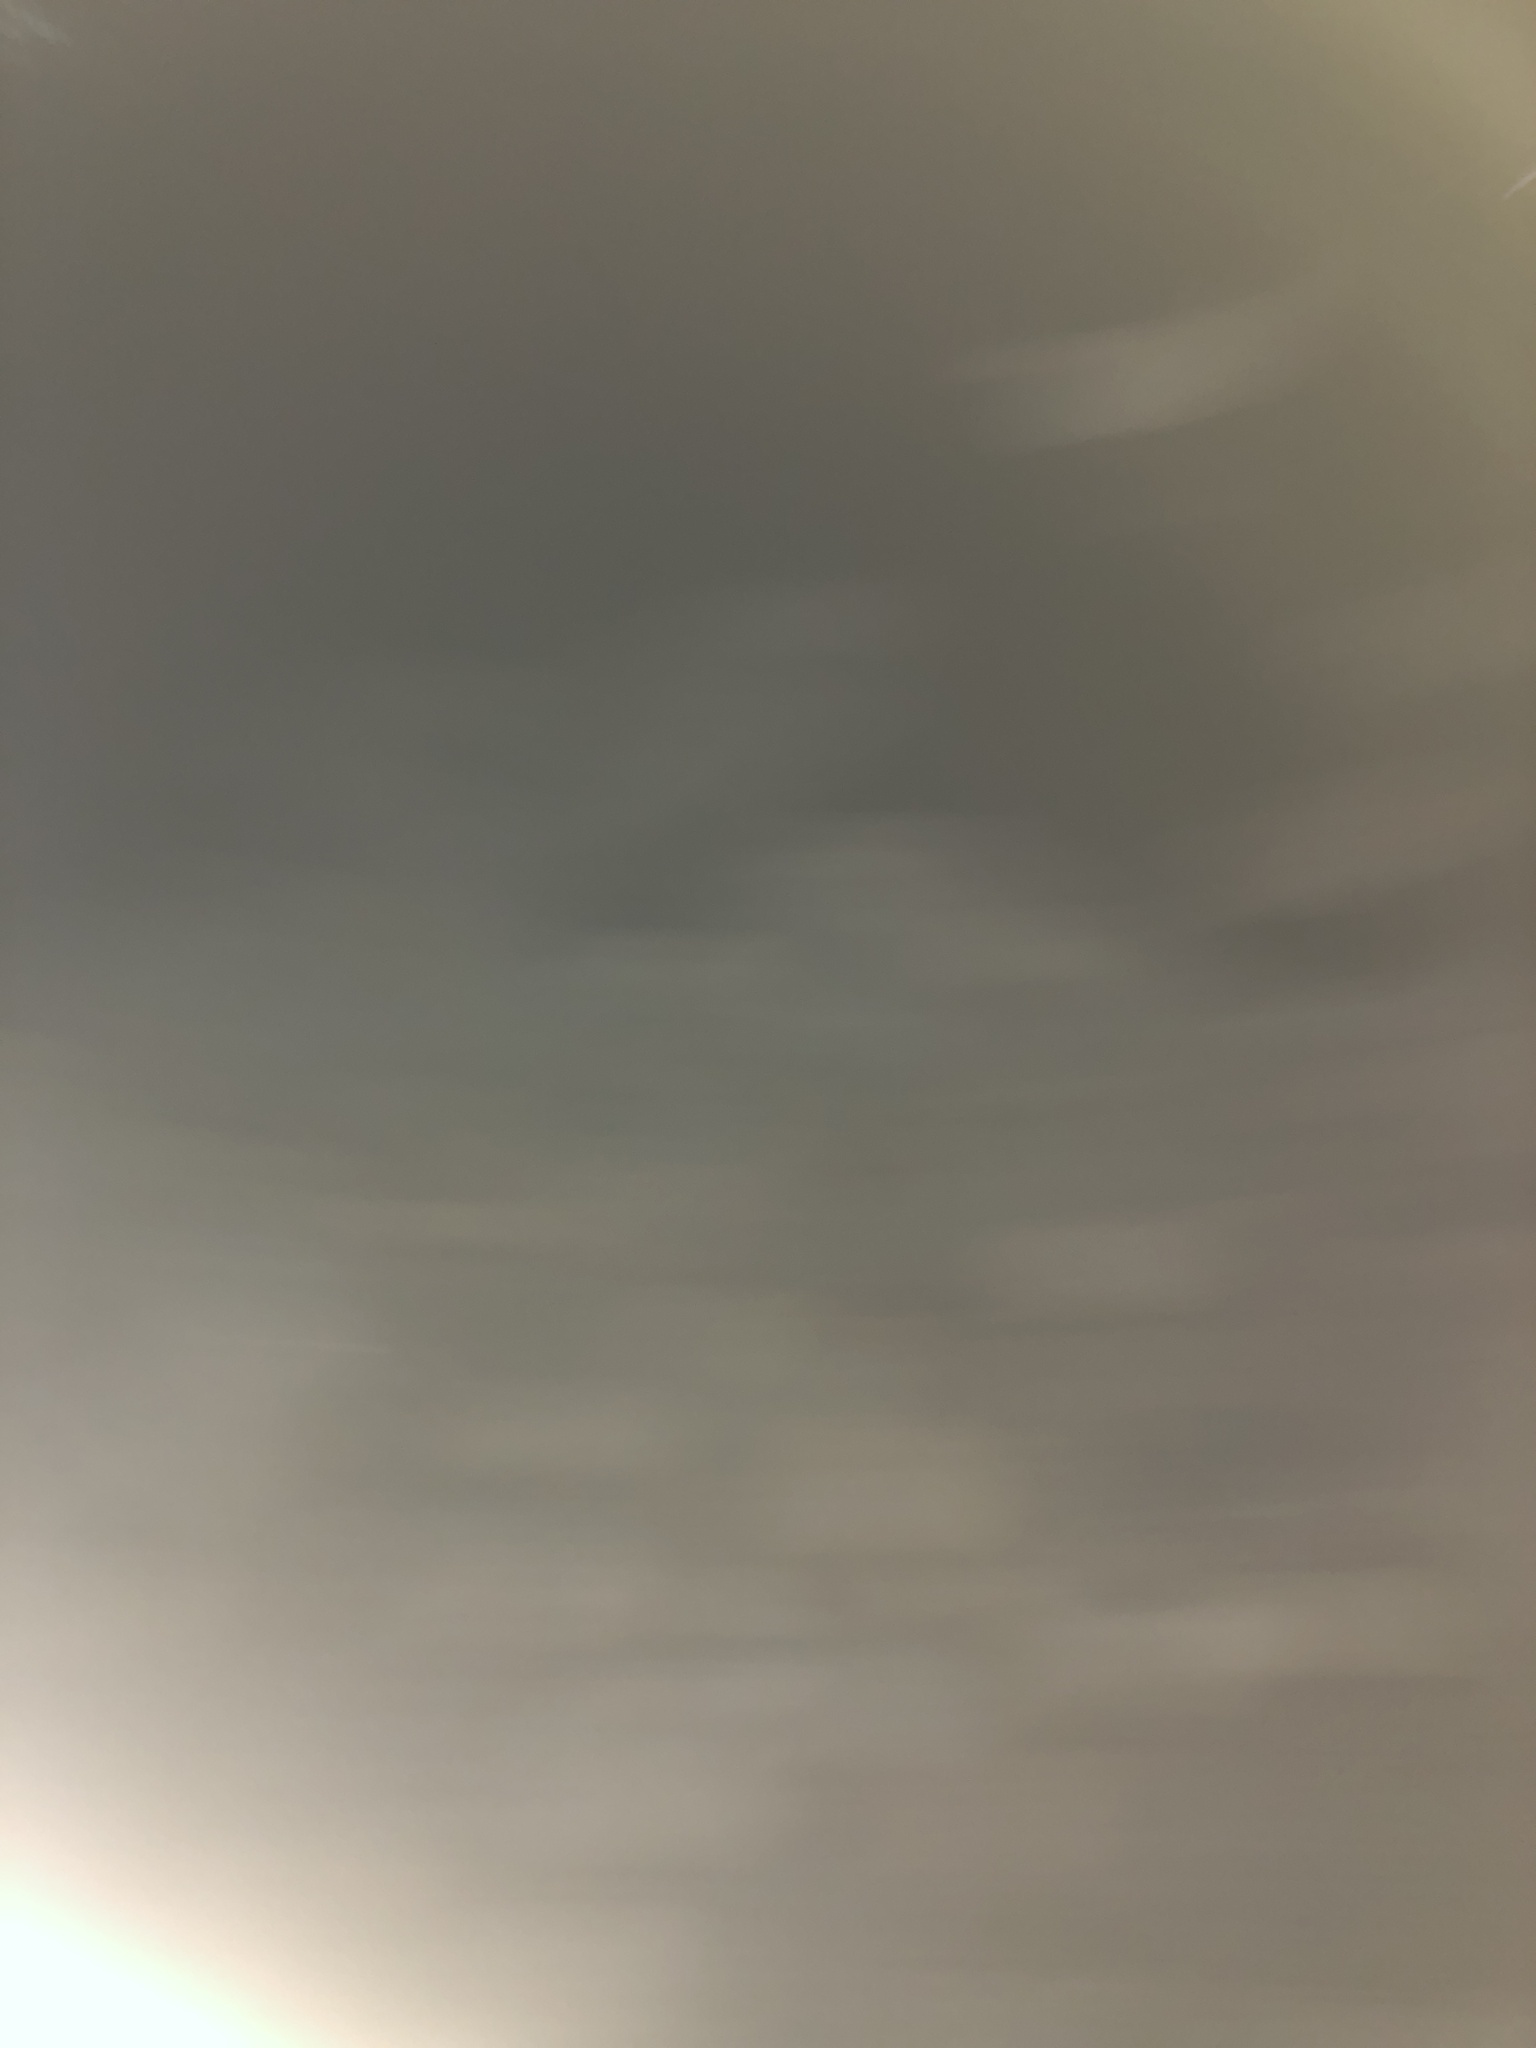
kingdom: Animalia
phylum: Chordata
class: Aves
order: Anseriformes
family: Anatidae
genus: Anas
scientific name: Anas platyrhynchos
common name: Mallard
